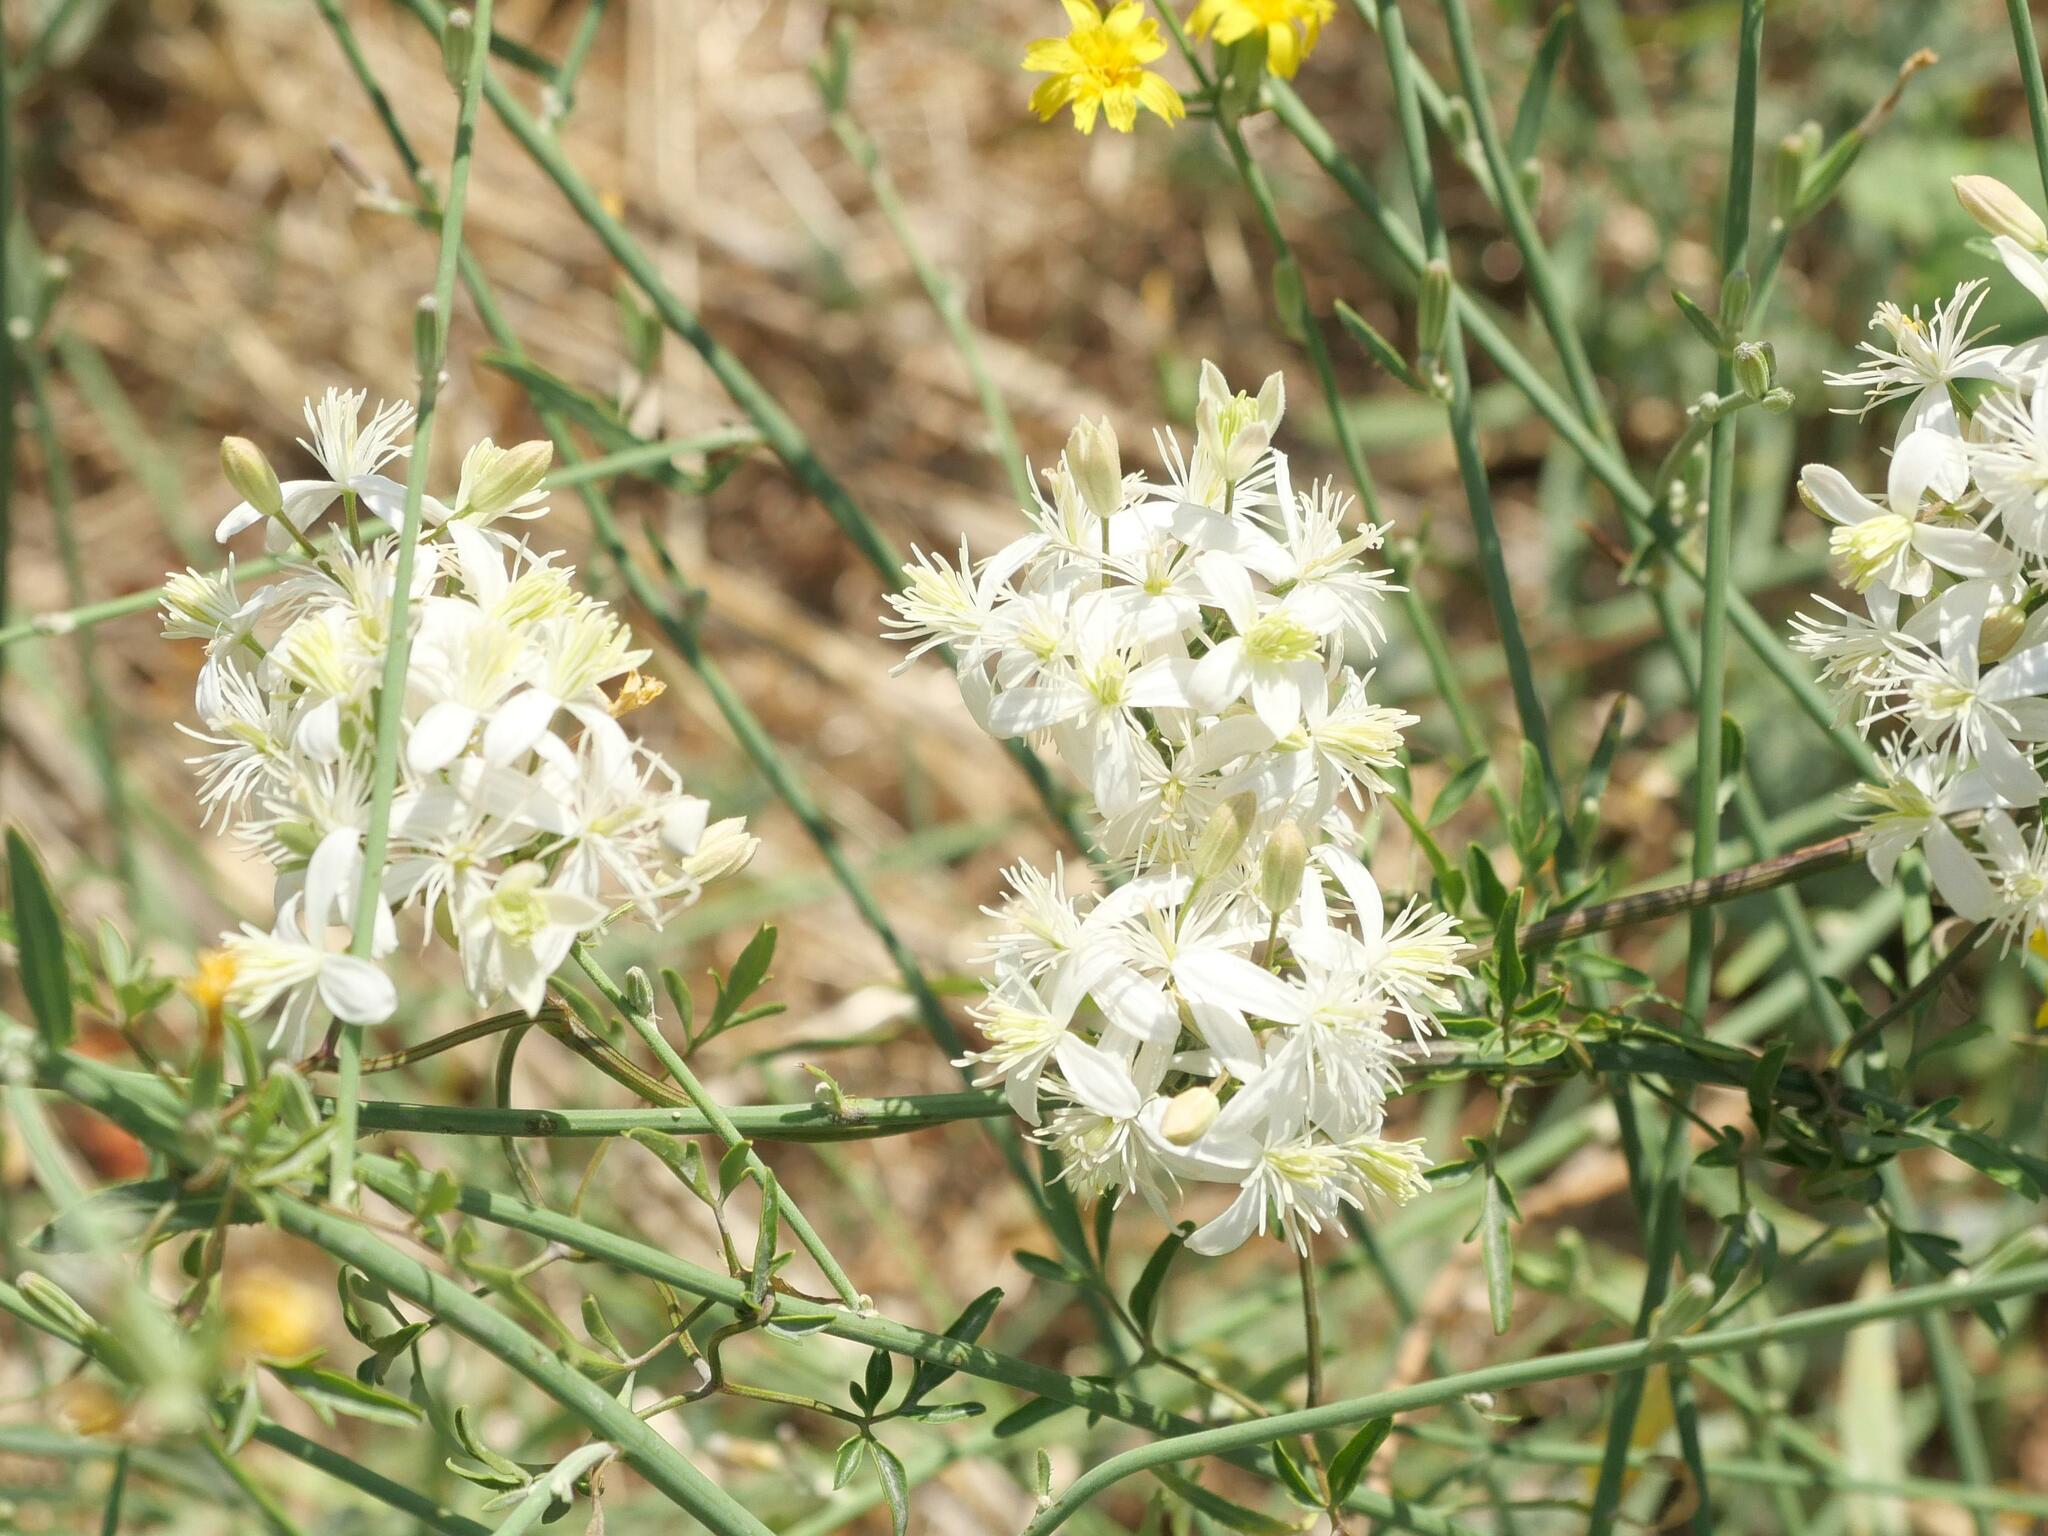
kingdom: Plantae
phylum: Tracheophyta
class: Magnoliopsida
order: Ranunculales
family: Ranunculaceae
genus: Clematis
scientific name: Clematis flammula
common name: Virgin's-bower
